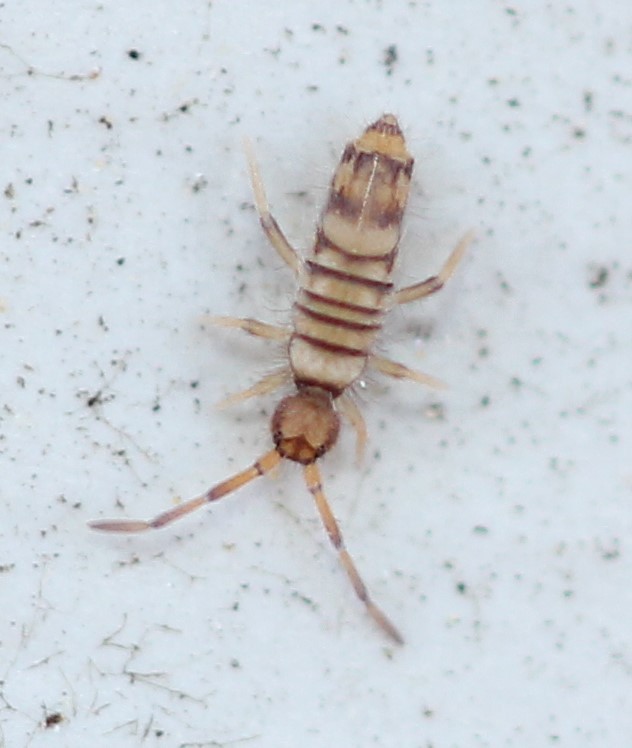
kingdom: Animalia
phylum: Arthropoda
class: Collembola
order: Entomobryomorpha
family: Entomobryidae
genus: Entomobrya
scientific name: Entomobrya atrocincta
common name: Springtail
